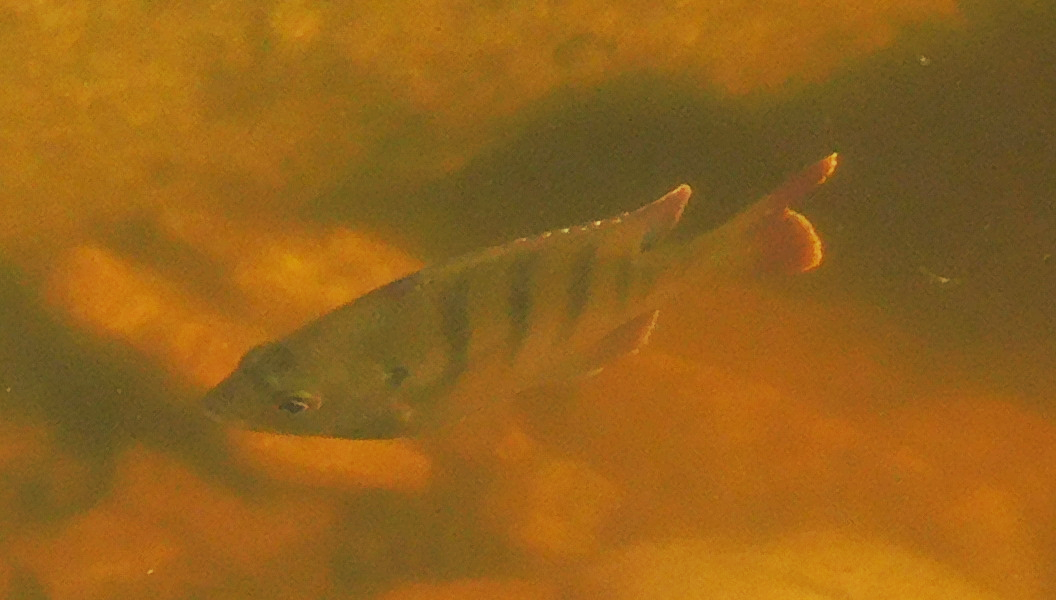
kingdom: Animalia
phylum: Chordata
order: Perciformes
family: Centrarchidae
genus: Lepomis
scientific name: Lepomis macrochirus
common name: Bluegill
